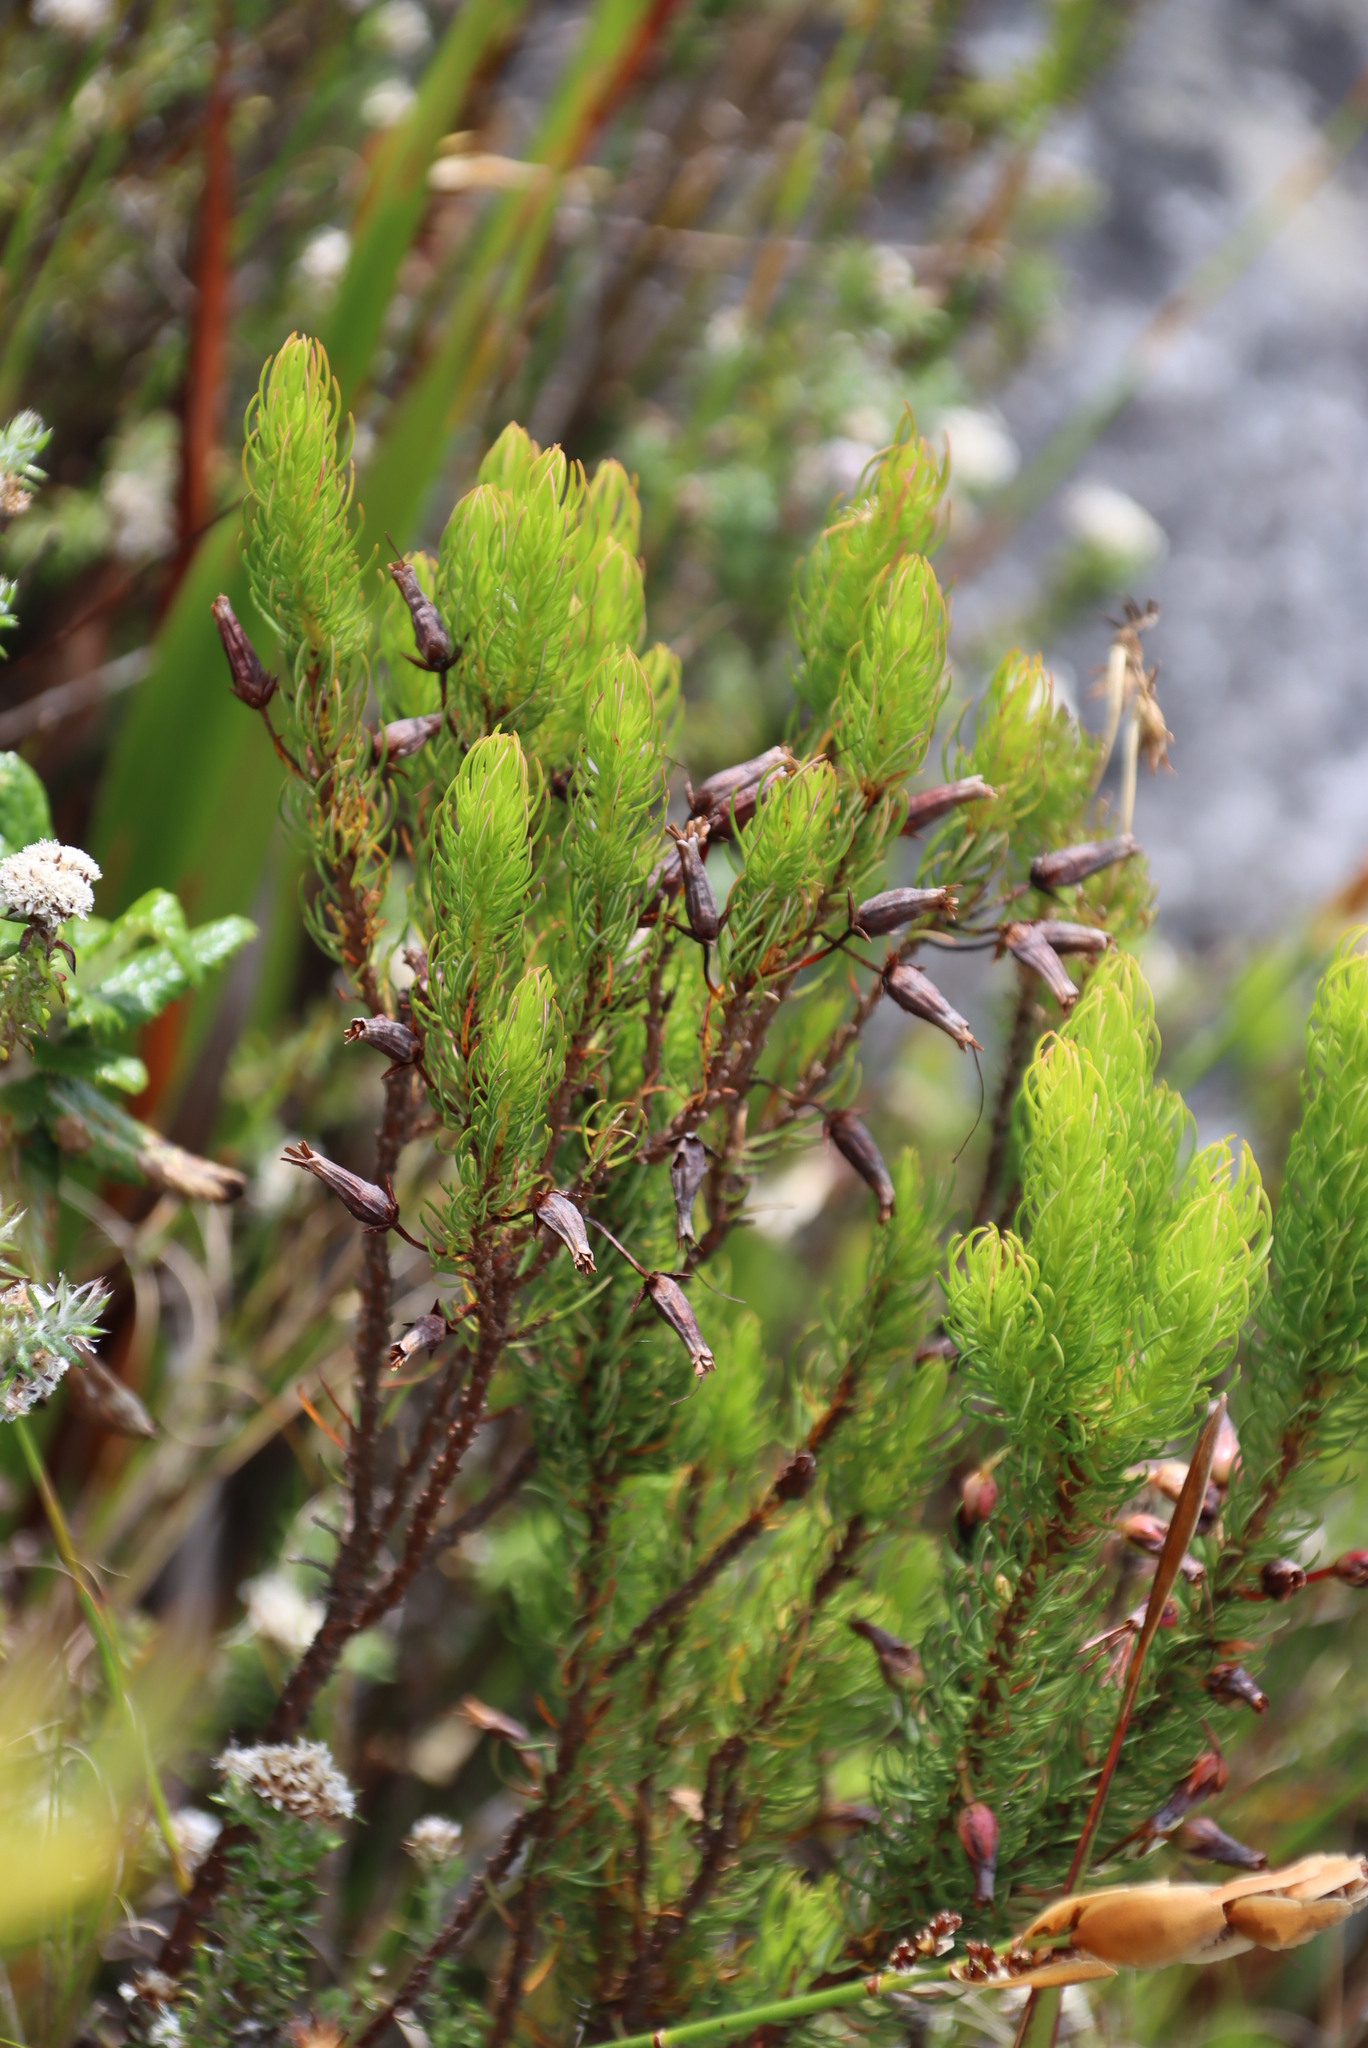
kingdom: Plantae
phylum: Tracheophyta
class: Magnoliopsida
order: Ericales
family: Ericaceae
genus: Erica
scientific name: Erica plukenetii
